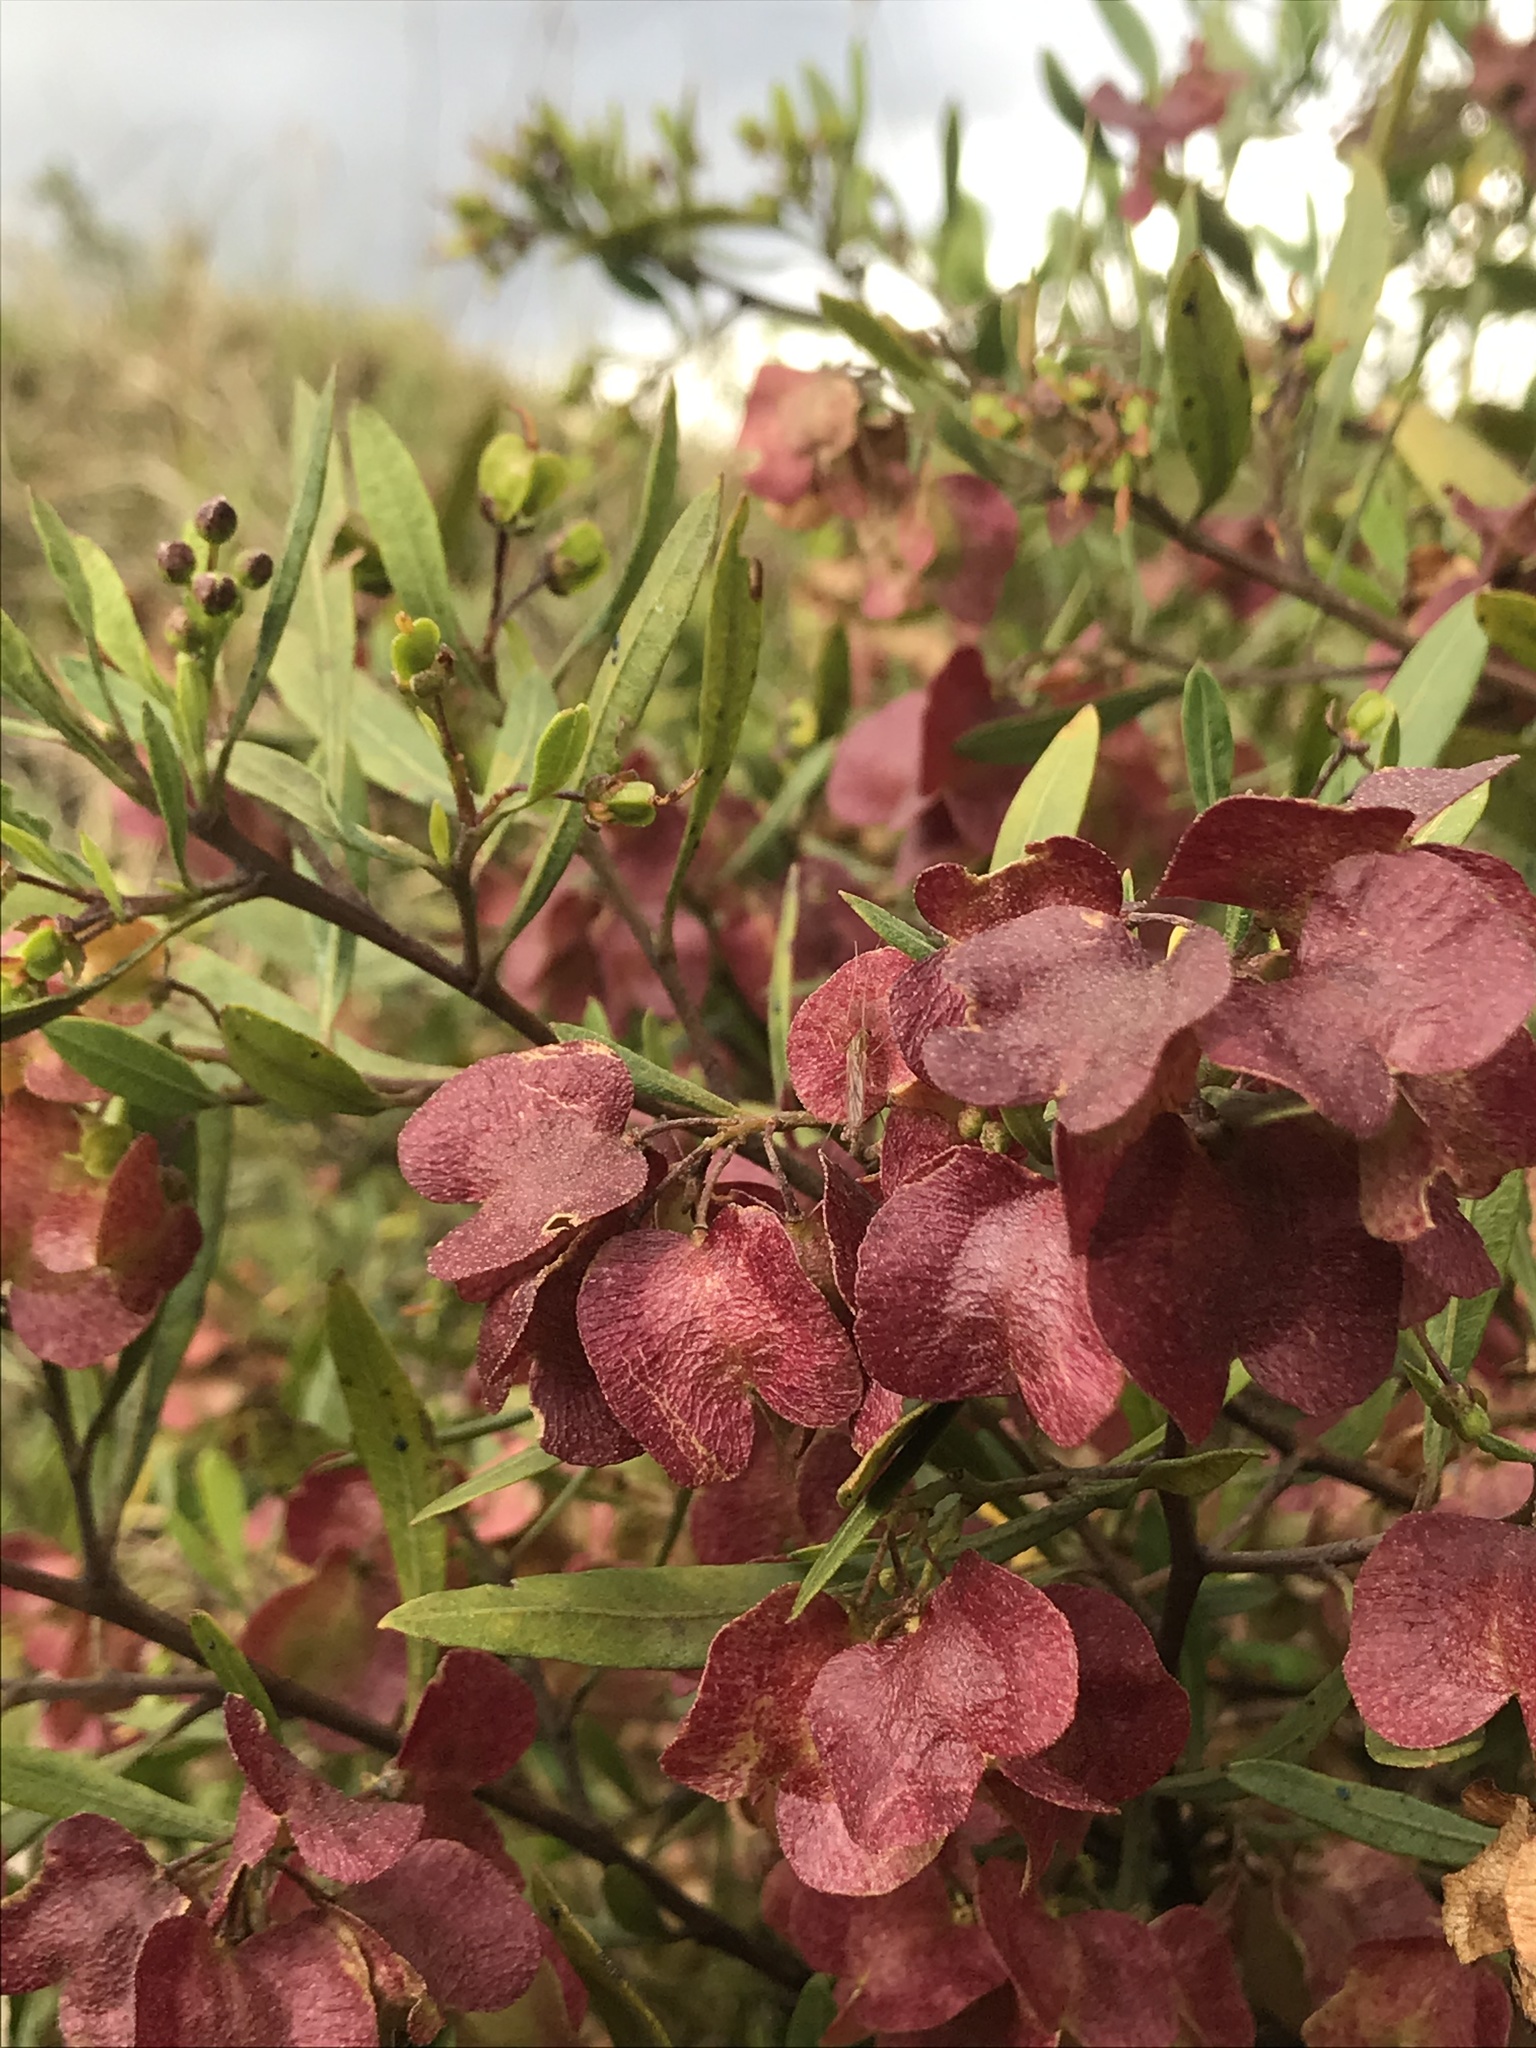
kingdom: Plantae
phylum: Tracheophyta
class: Magnoliopsida
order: Sapindales
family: Sapindaceae
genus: Dodonaea
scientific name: Dodonaea viscosa
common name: Hopbush
